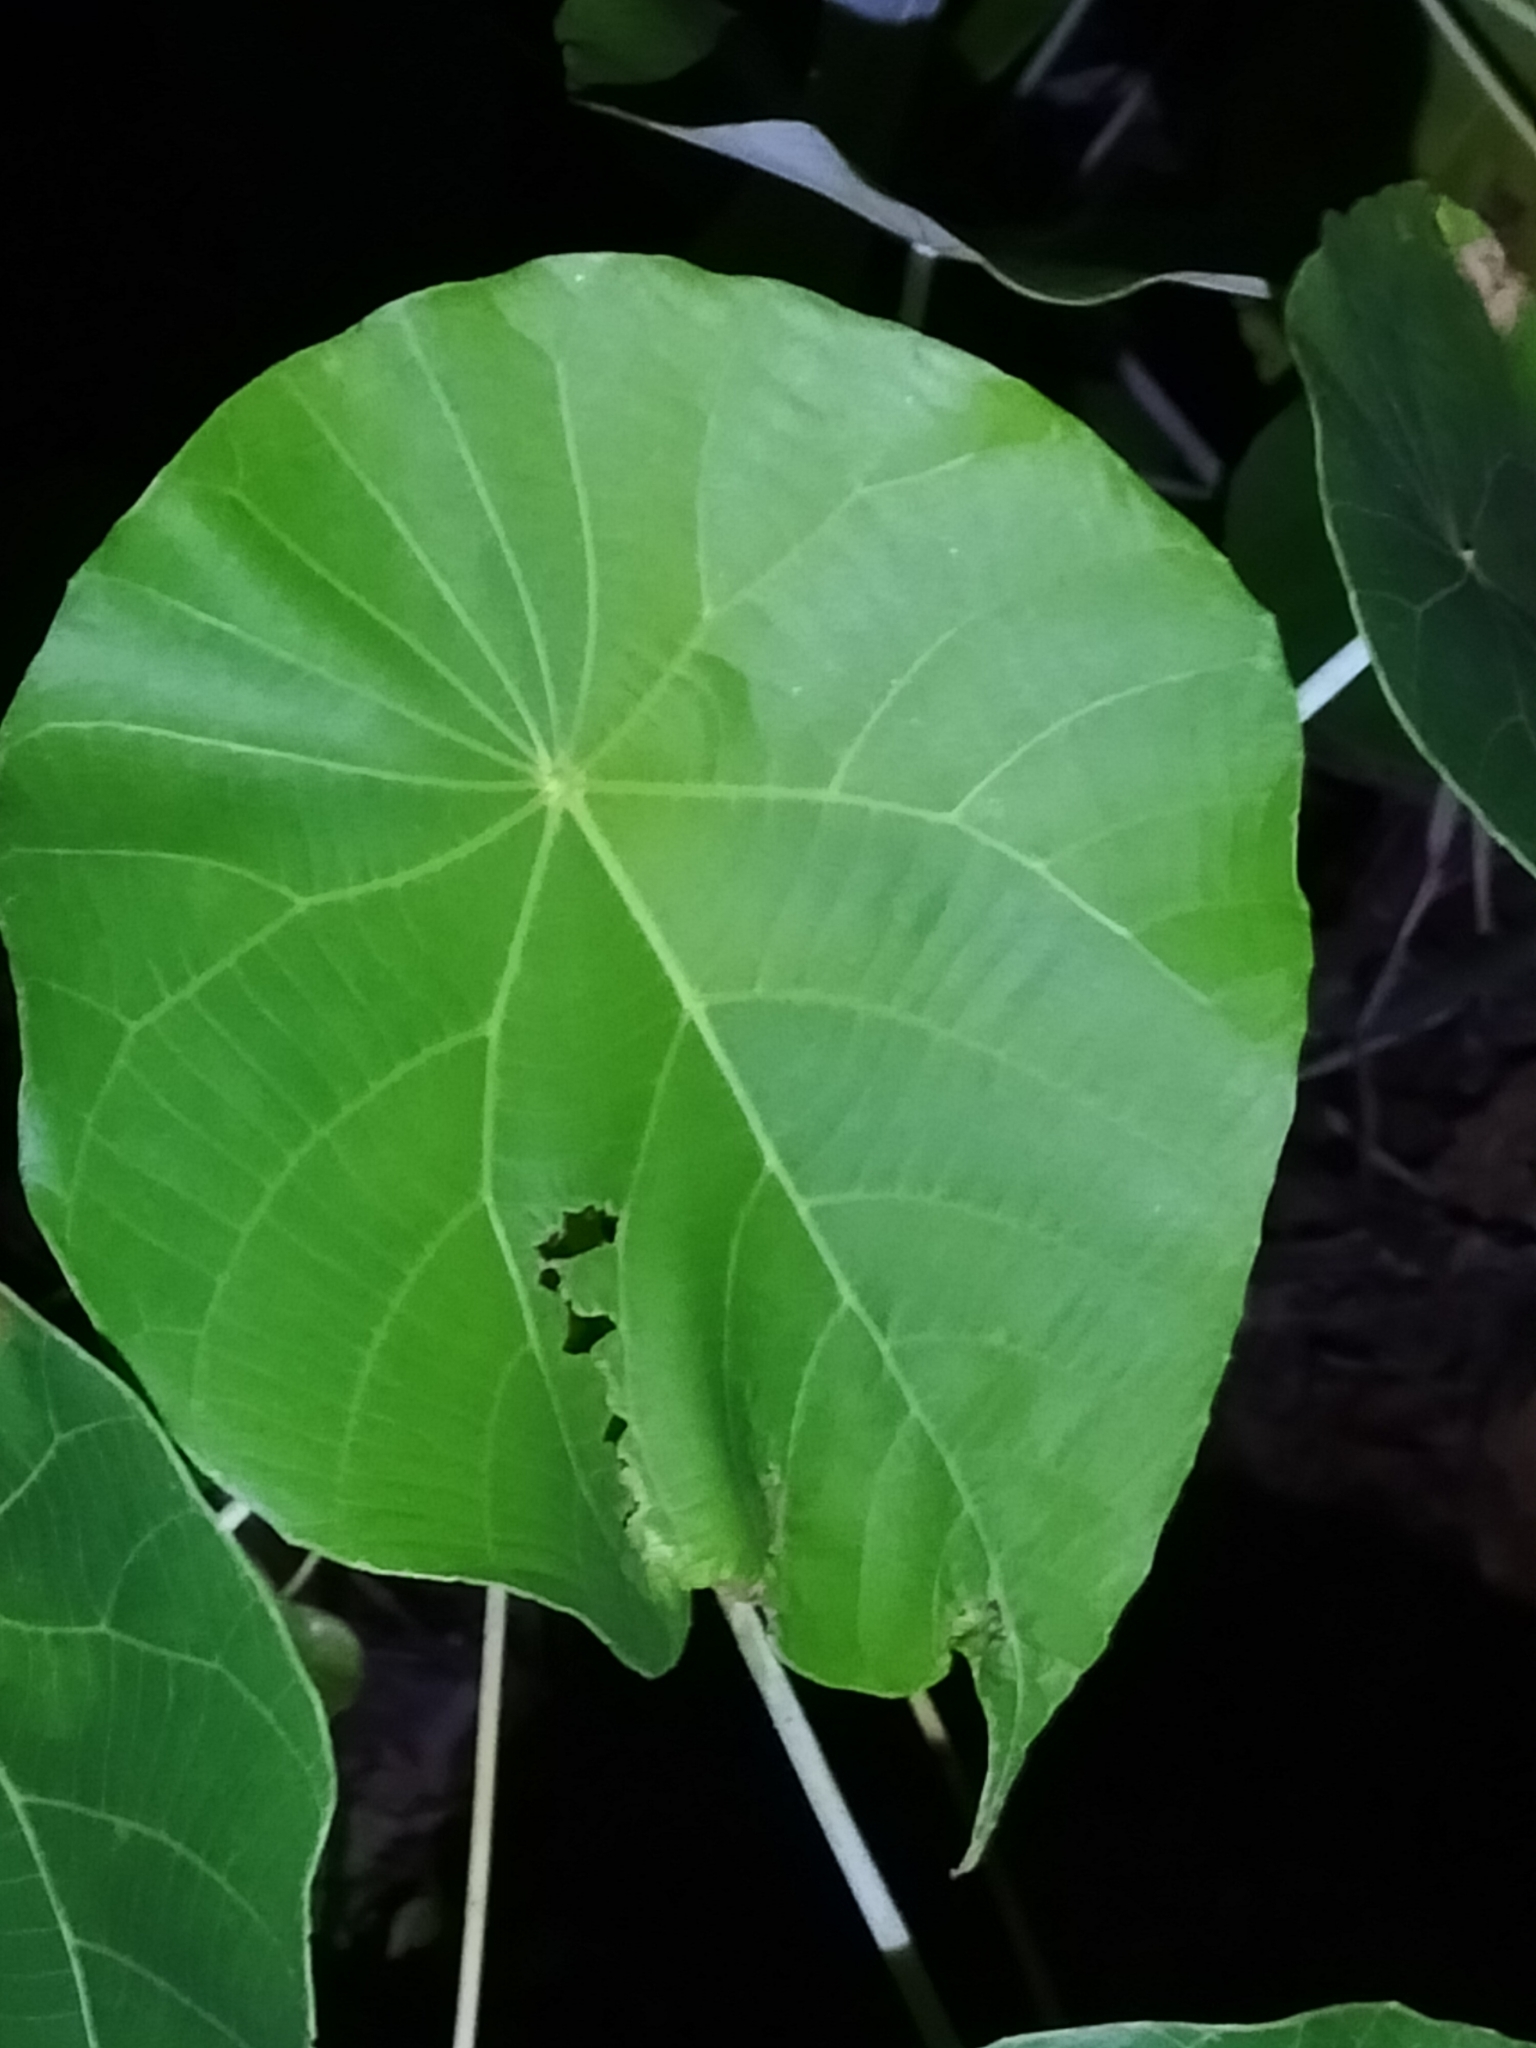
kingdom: Plantae
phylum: Tracheophyta
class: Magnoliopsida
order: Malpighiales
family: Euphorbiaceae
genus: Macaranga
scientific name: Macaranga tanarius
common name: Parasol leaf tree
